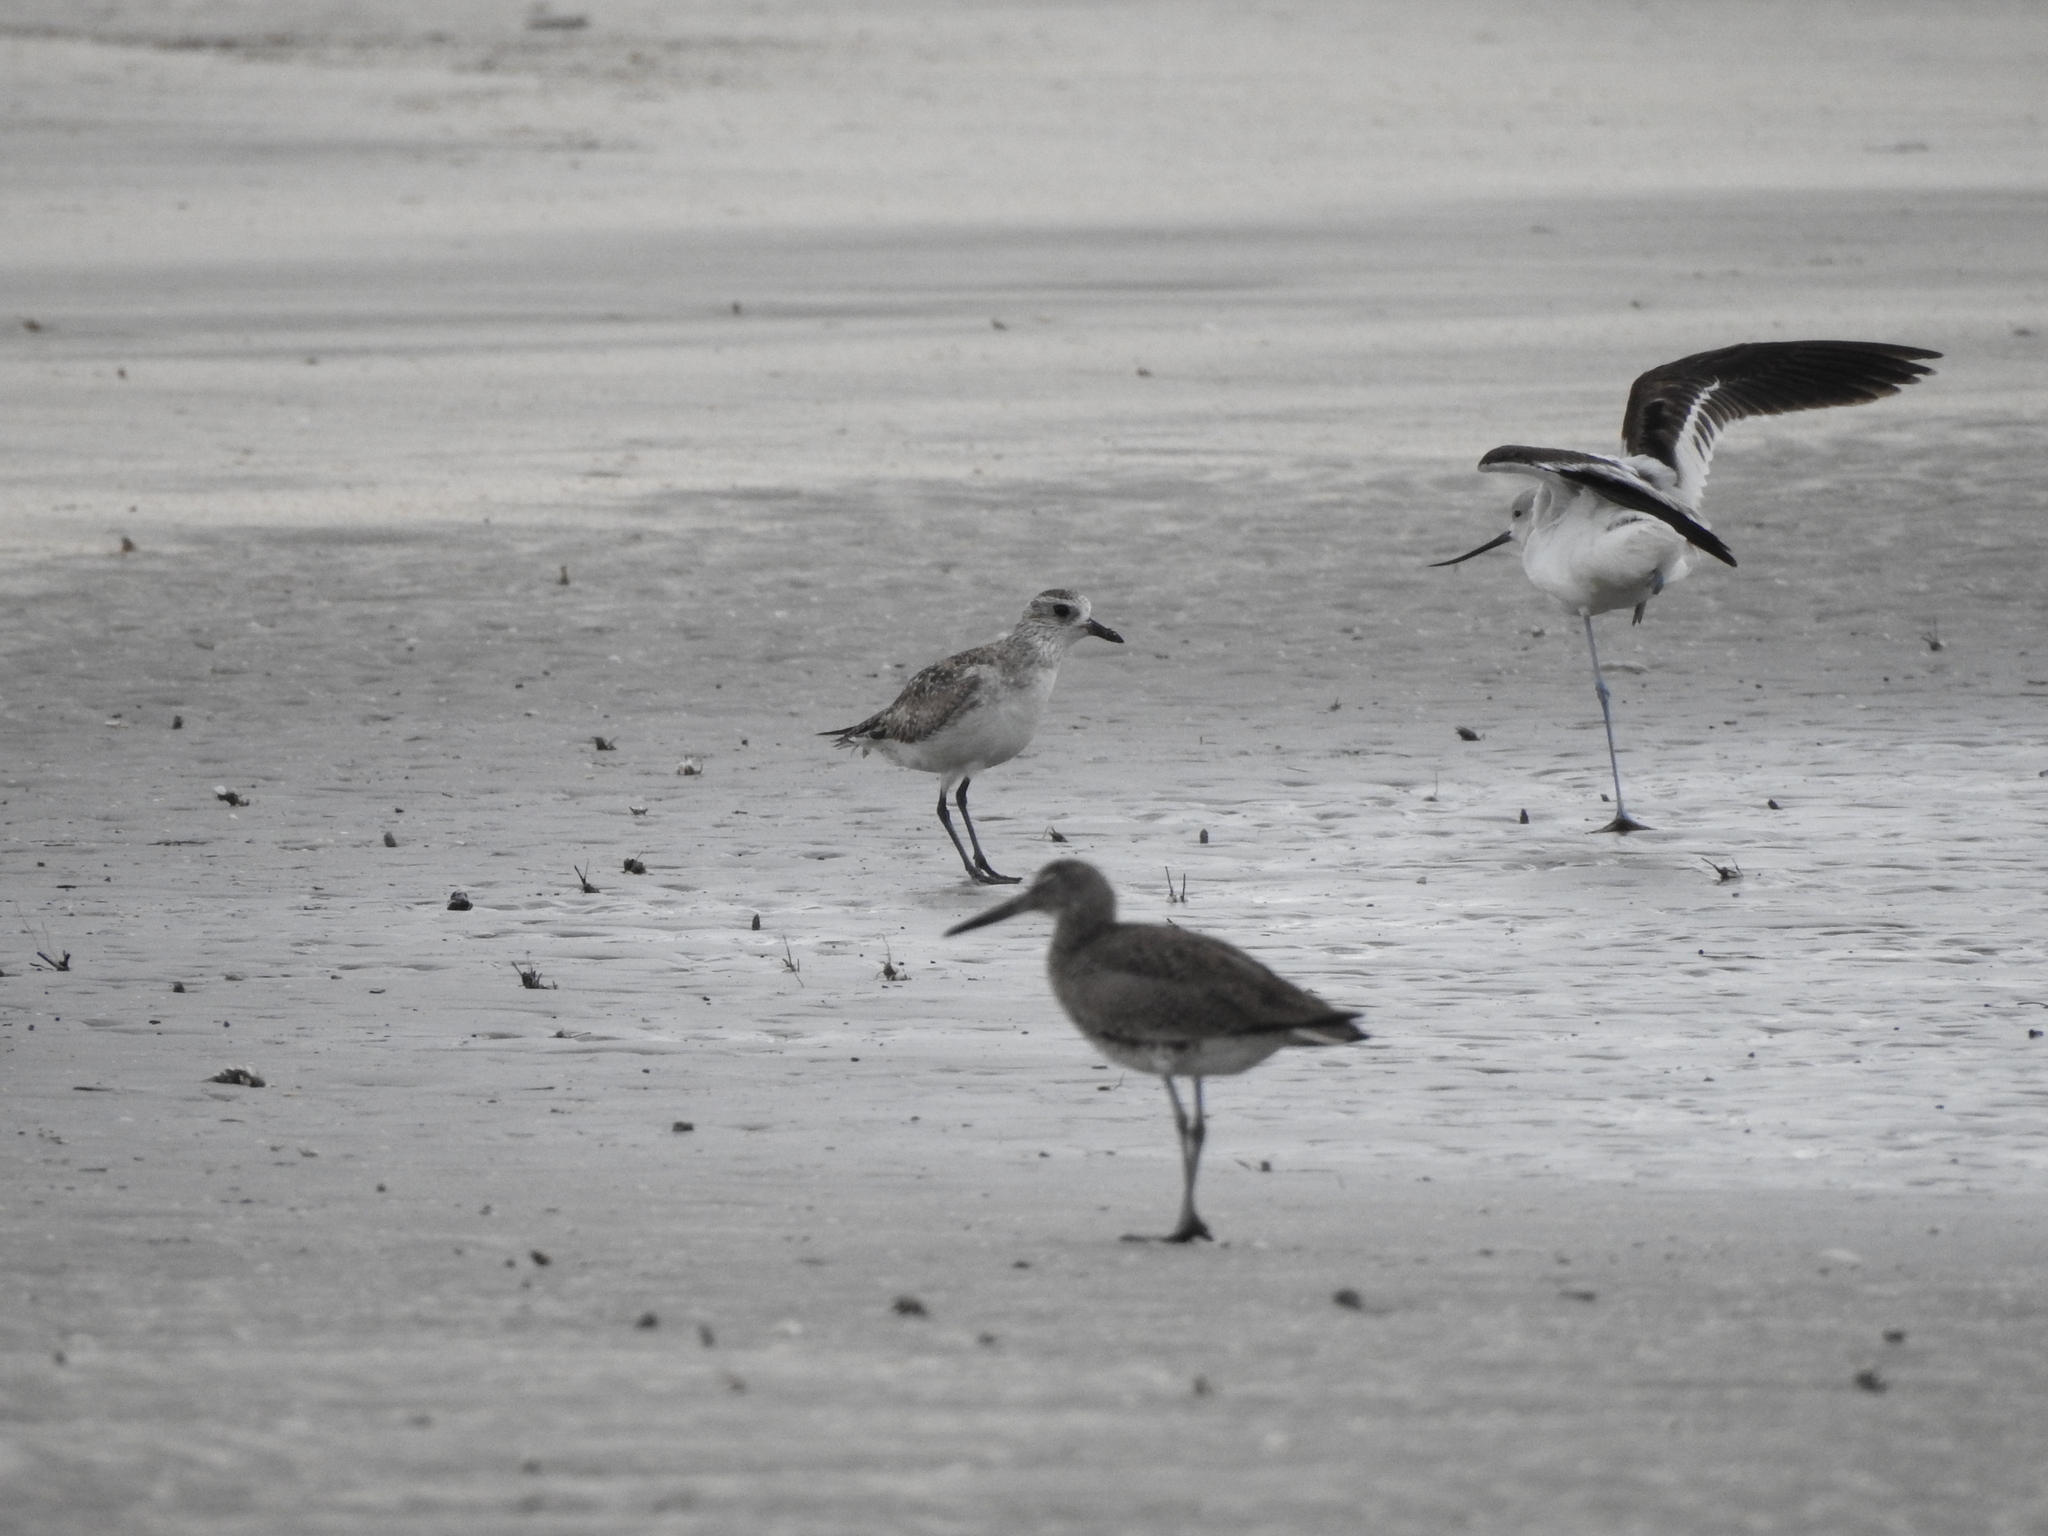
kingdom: Animalia
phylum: Chordata
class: Aves
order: Charadriiformes
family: Charadriidae
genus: Pluvialis
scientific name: Pluvialis squatarola
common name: Grey plover
